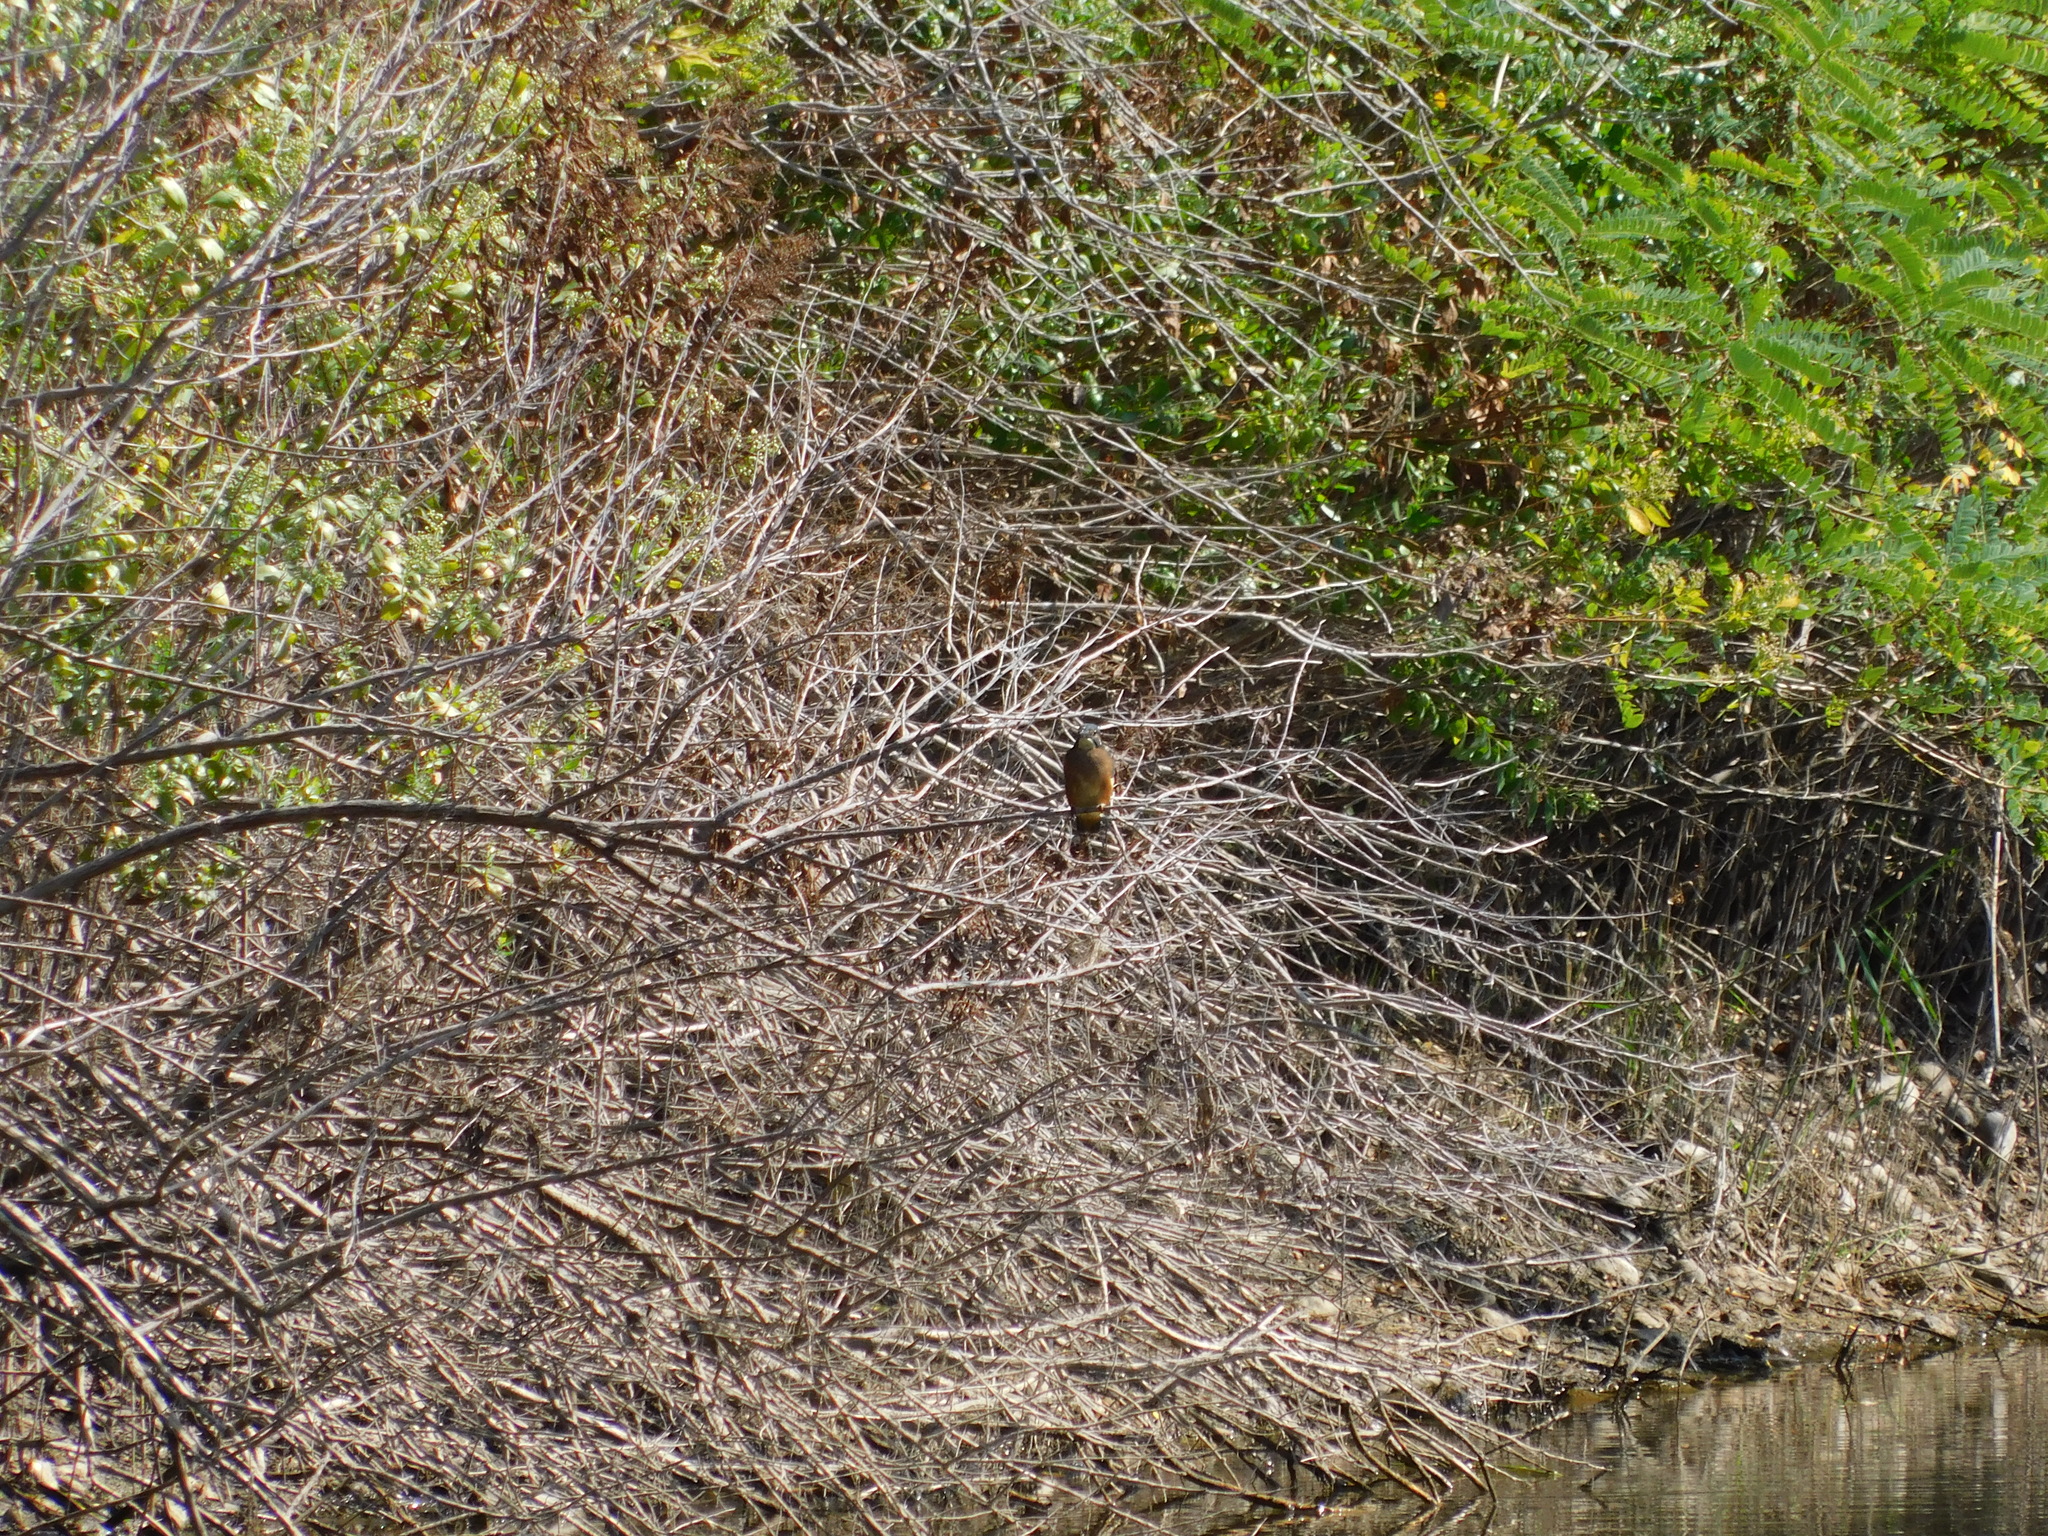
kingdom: Animalia
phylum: Chordata
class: Aves
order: Coraciiformes
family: Alcedinidae
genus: Alcedo
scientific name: Alcedo atthis
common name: Common kingfisher
